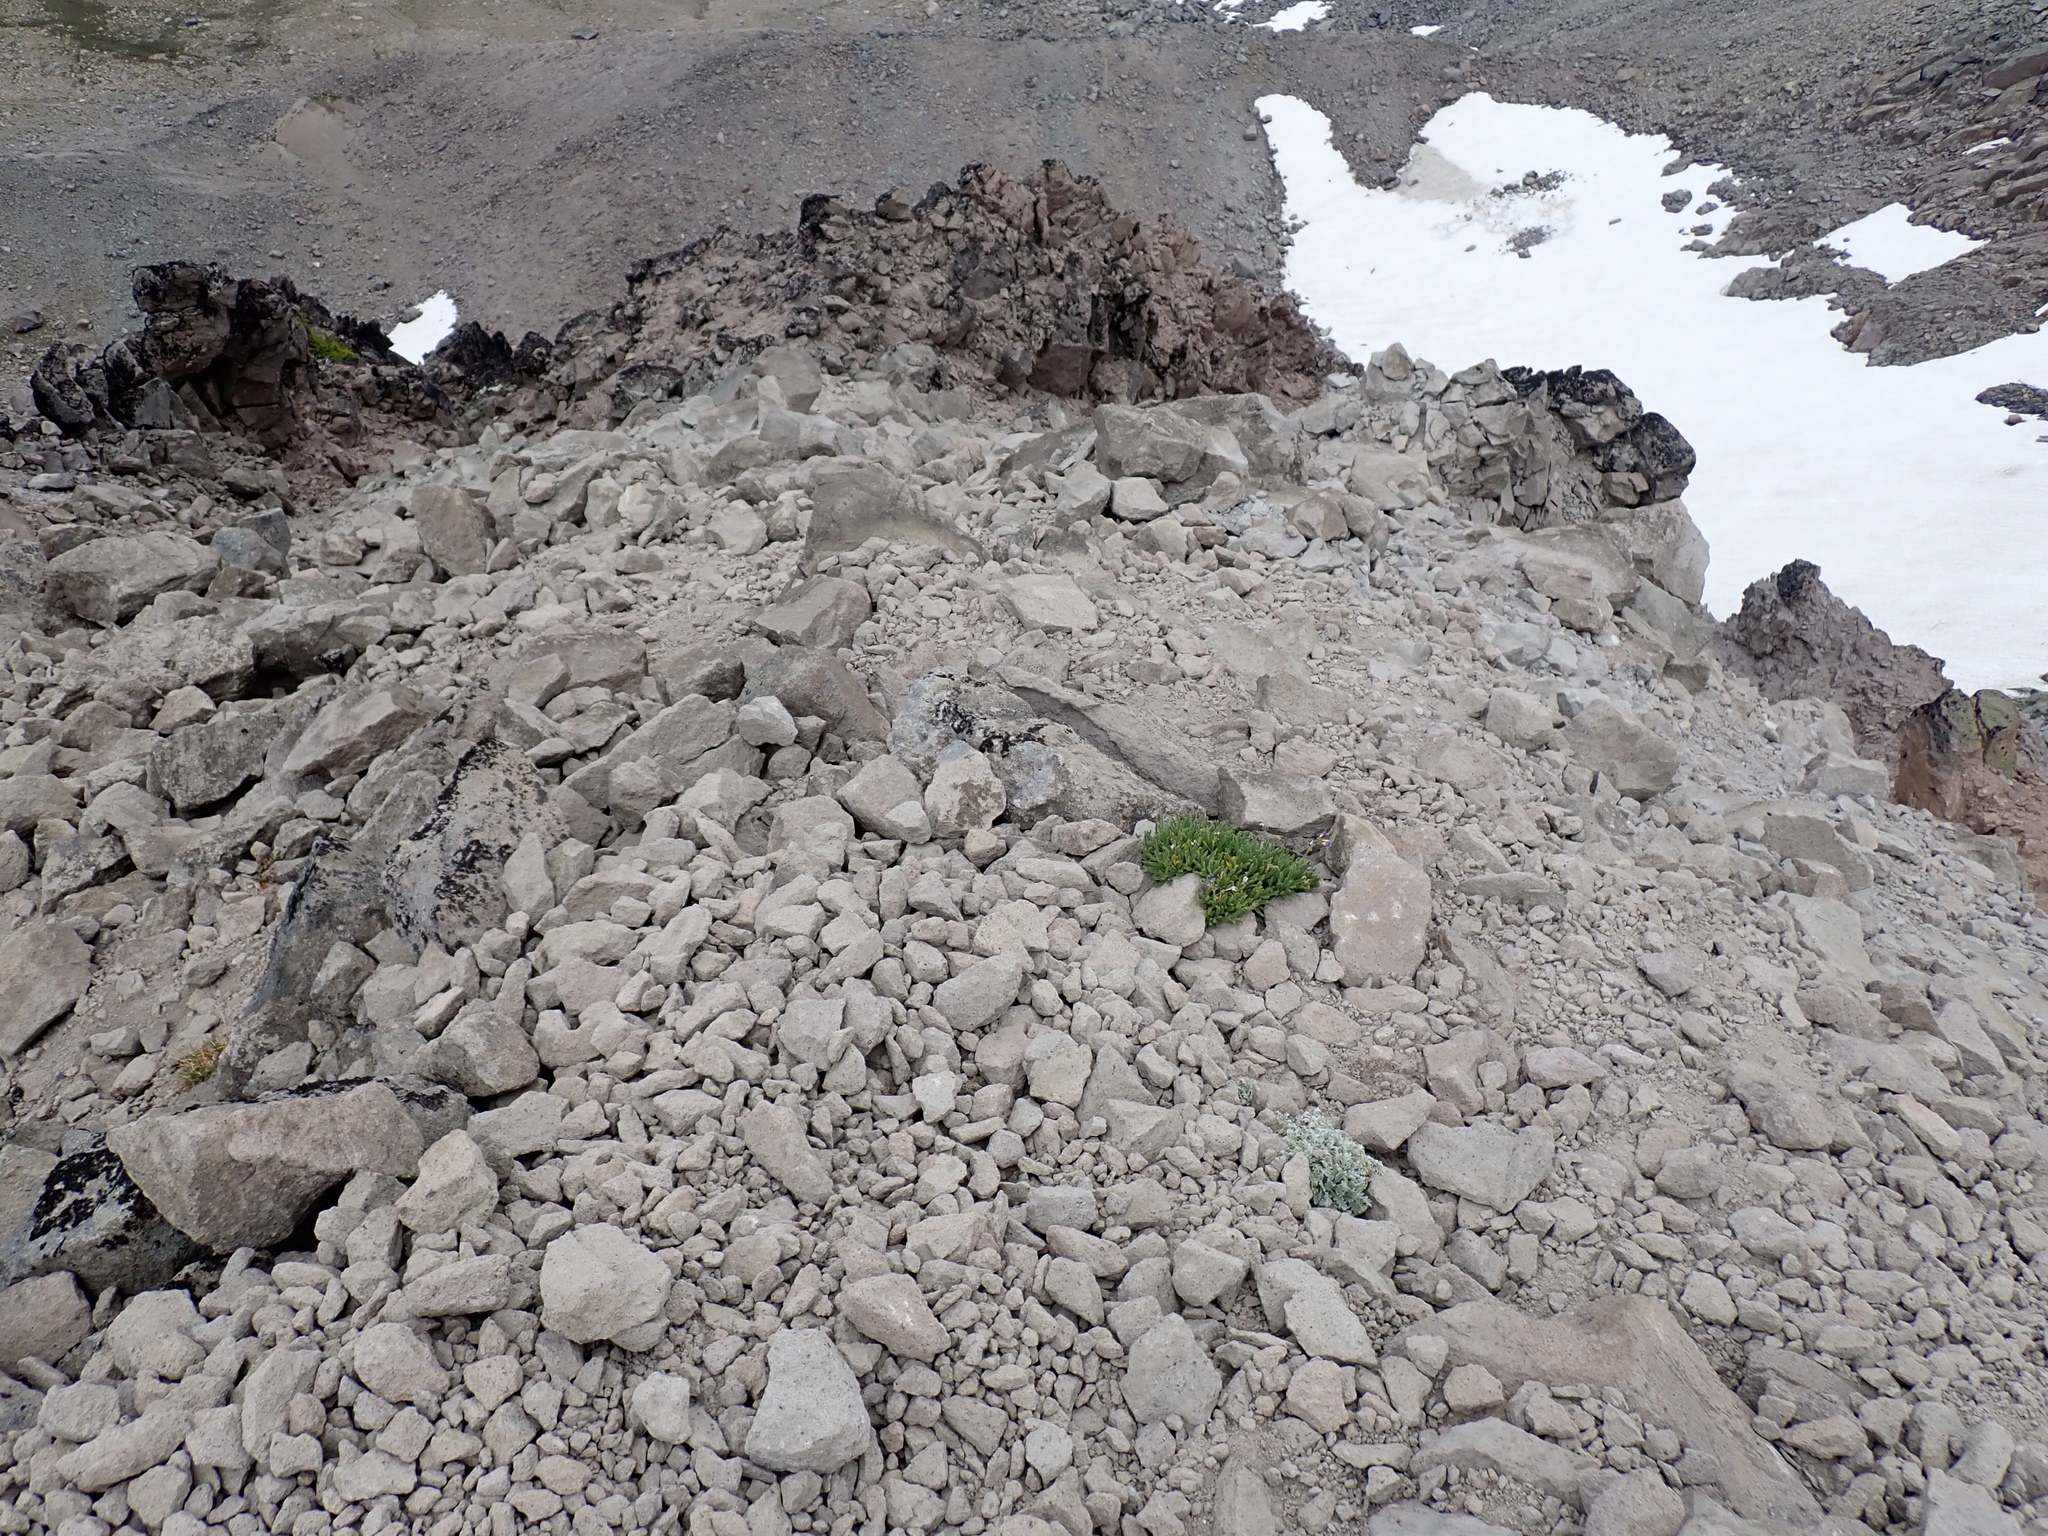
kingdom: Plantae
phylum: Tracheophyta
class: Magnoliopsida
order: Ericales
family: Polemoniaceae
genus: Polemonium
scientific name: Polemonium elegans
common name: Elegant jacob's-ladder
